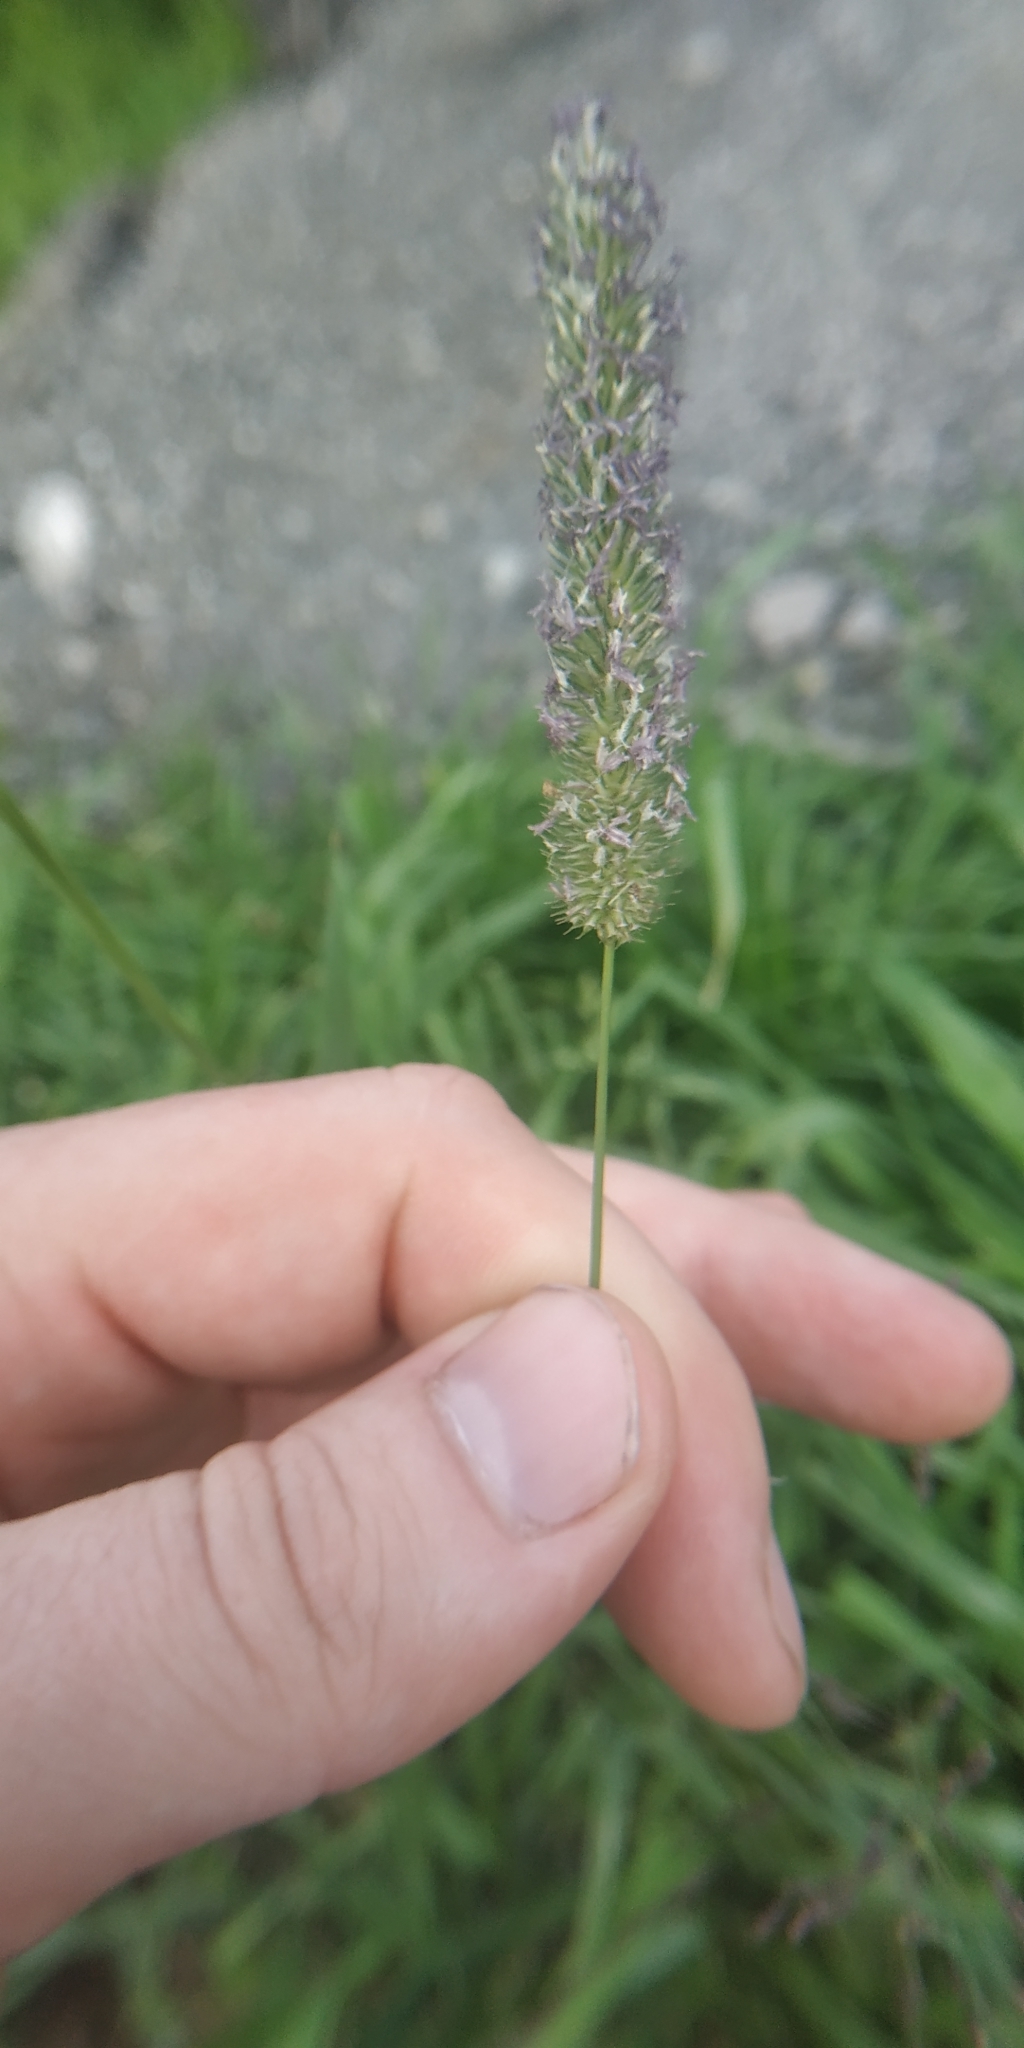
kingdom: Plantae
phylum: Tracheophyta
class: Liliopsida
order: Poales
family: Poaceae
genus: Phleum
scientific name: Phleum pratense
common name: Timothy grass
